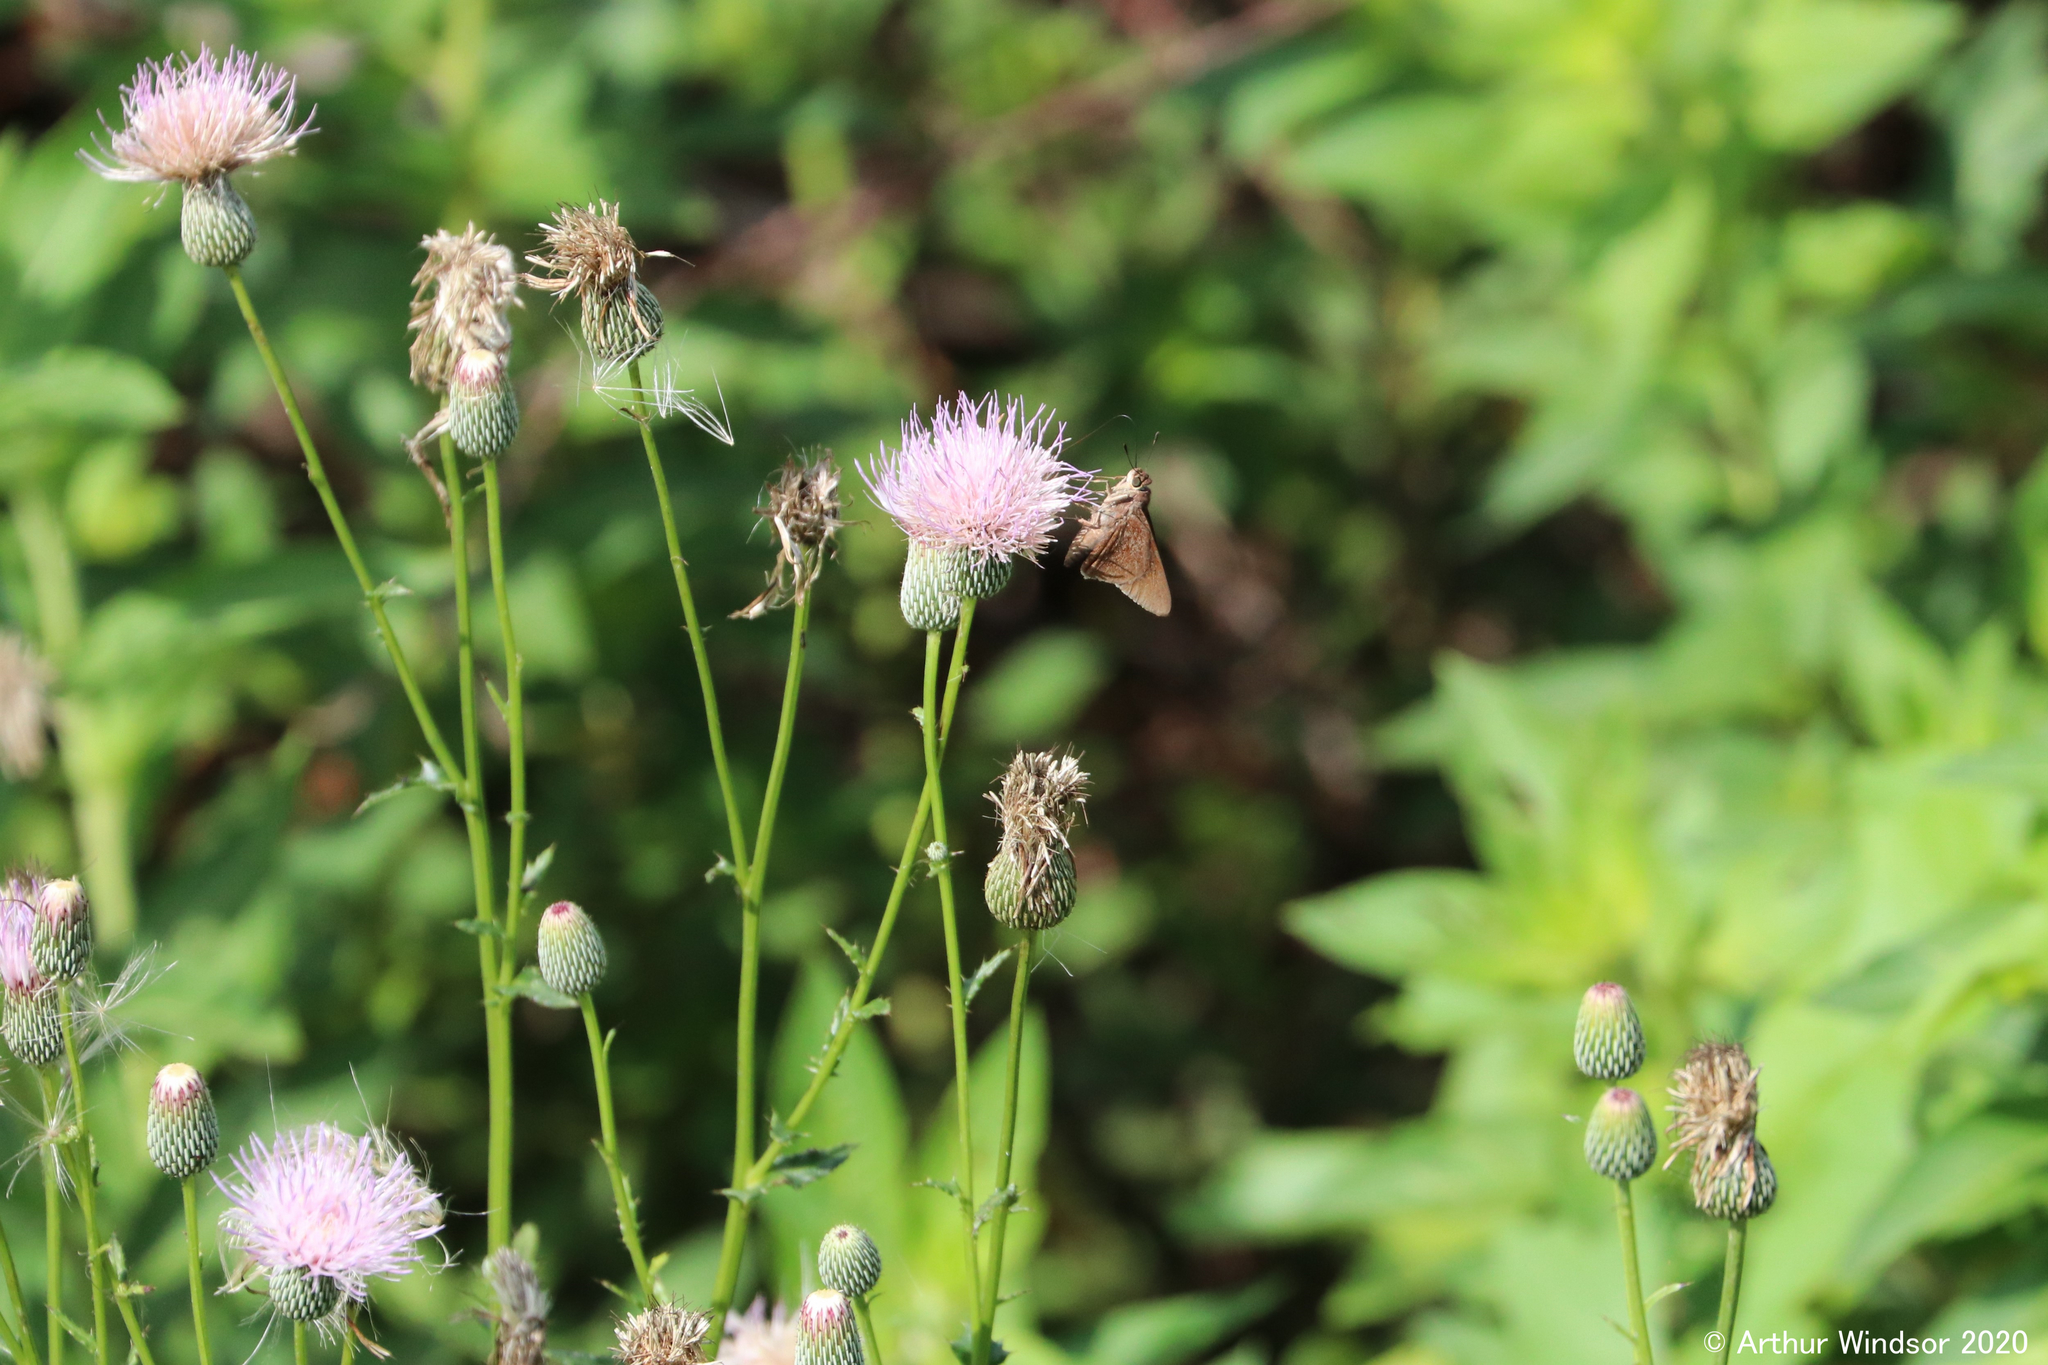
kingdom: Animalia
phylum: Arthropoda
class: Insecta
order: Lepidoptera
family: Hesperiidae
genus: Asbolis
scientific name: Asbolis capucinus
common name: Monk skipper
